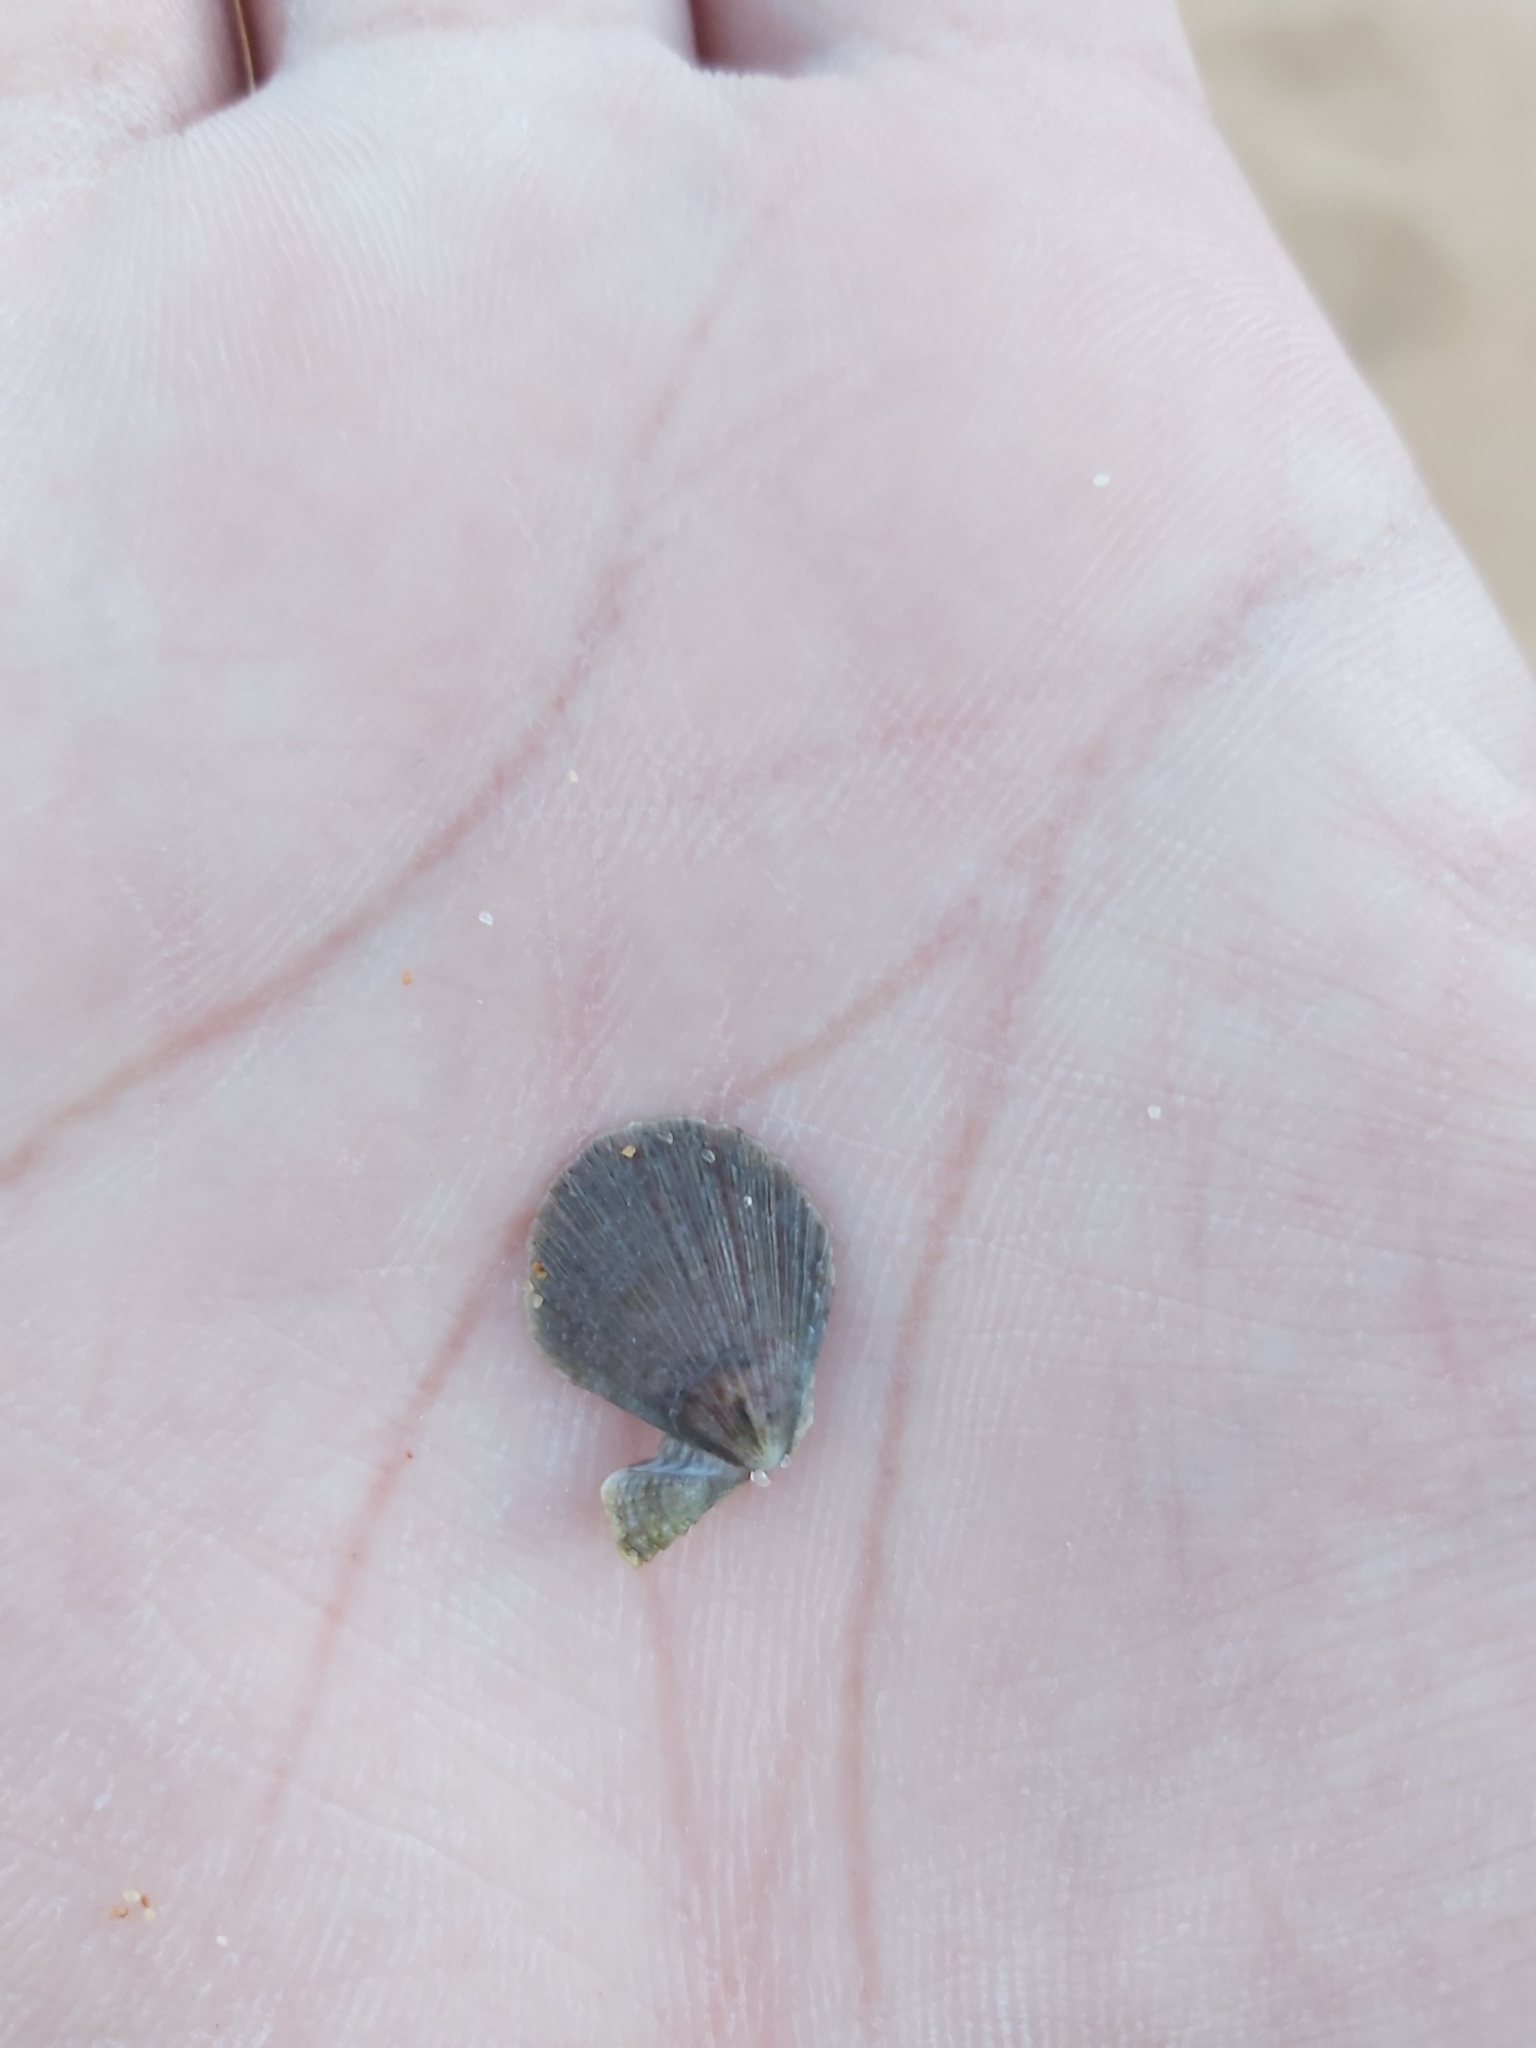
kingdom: Animalia
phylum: Mollusca
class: Bivalvia
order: Pectinida
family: Pectinidae
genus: Scaeochlamys
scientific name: Scaeochlamys livida
